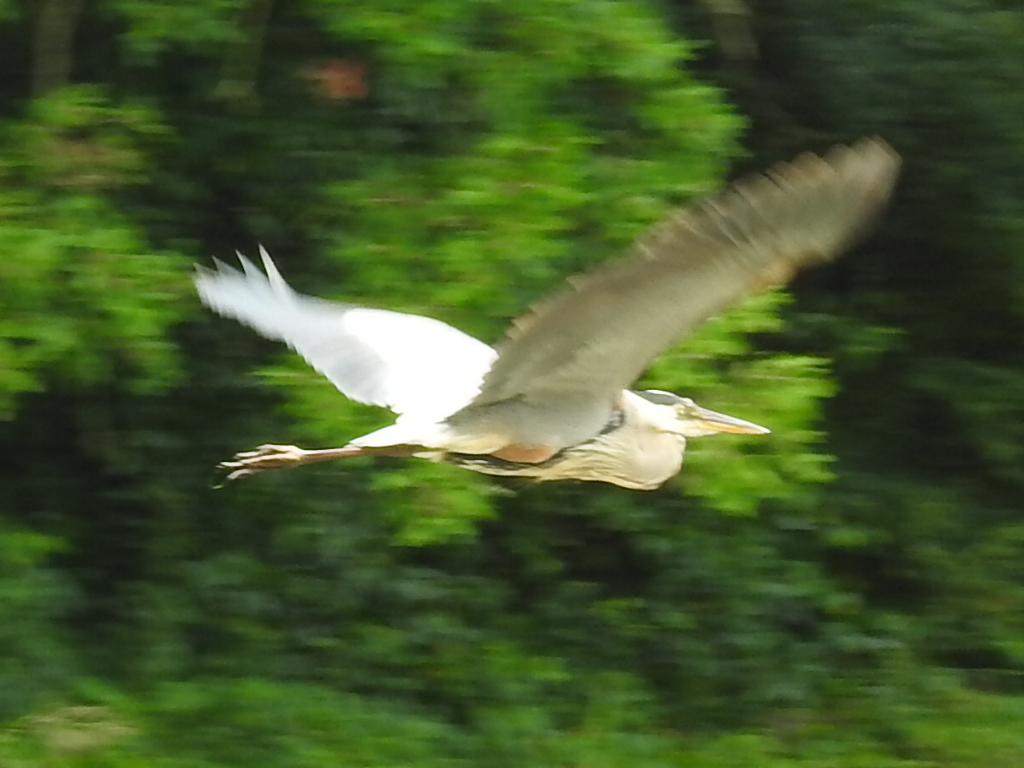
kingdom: Animalia
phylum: Chordata
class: Aves
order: Pelecaniformes
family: Ardeidae
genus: Ardea
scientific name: Ardea herodias
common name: Great blue heron
